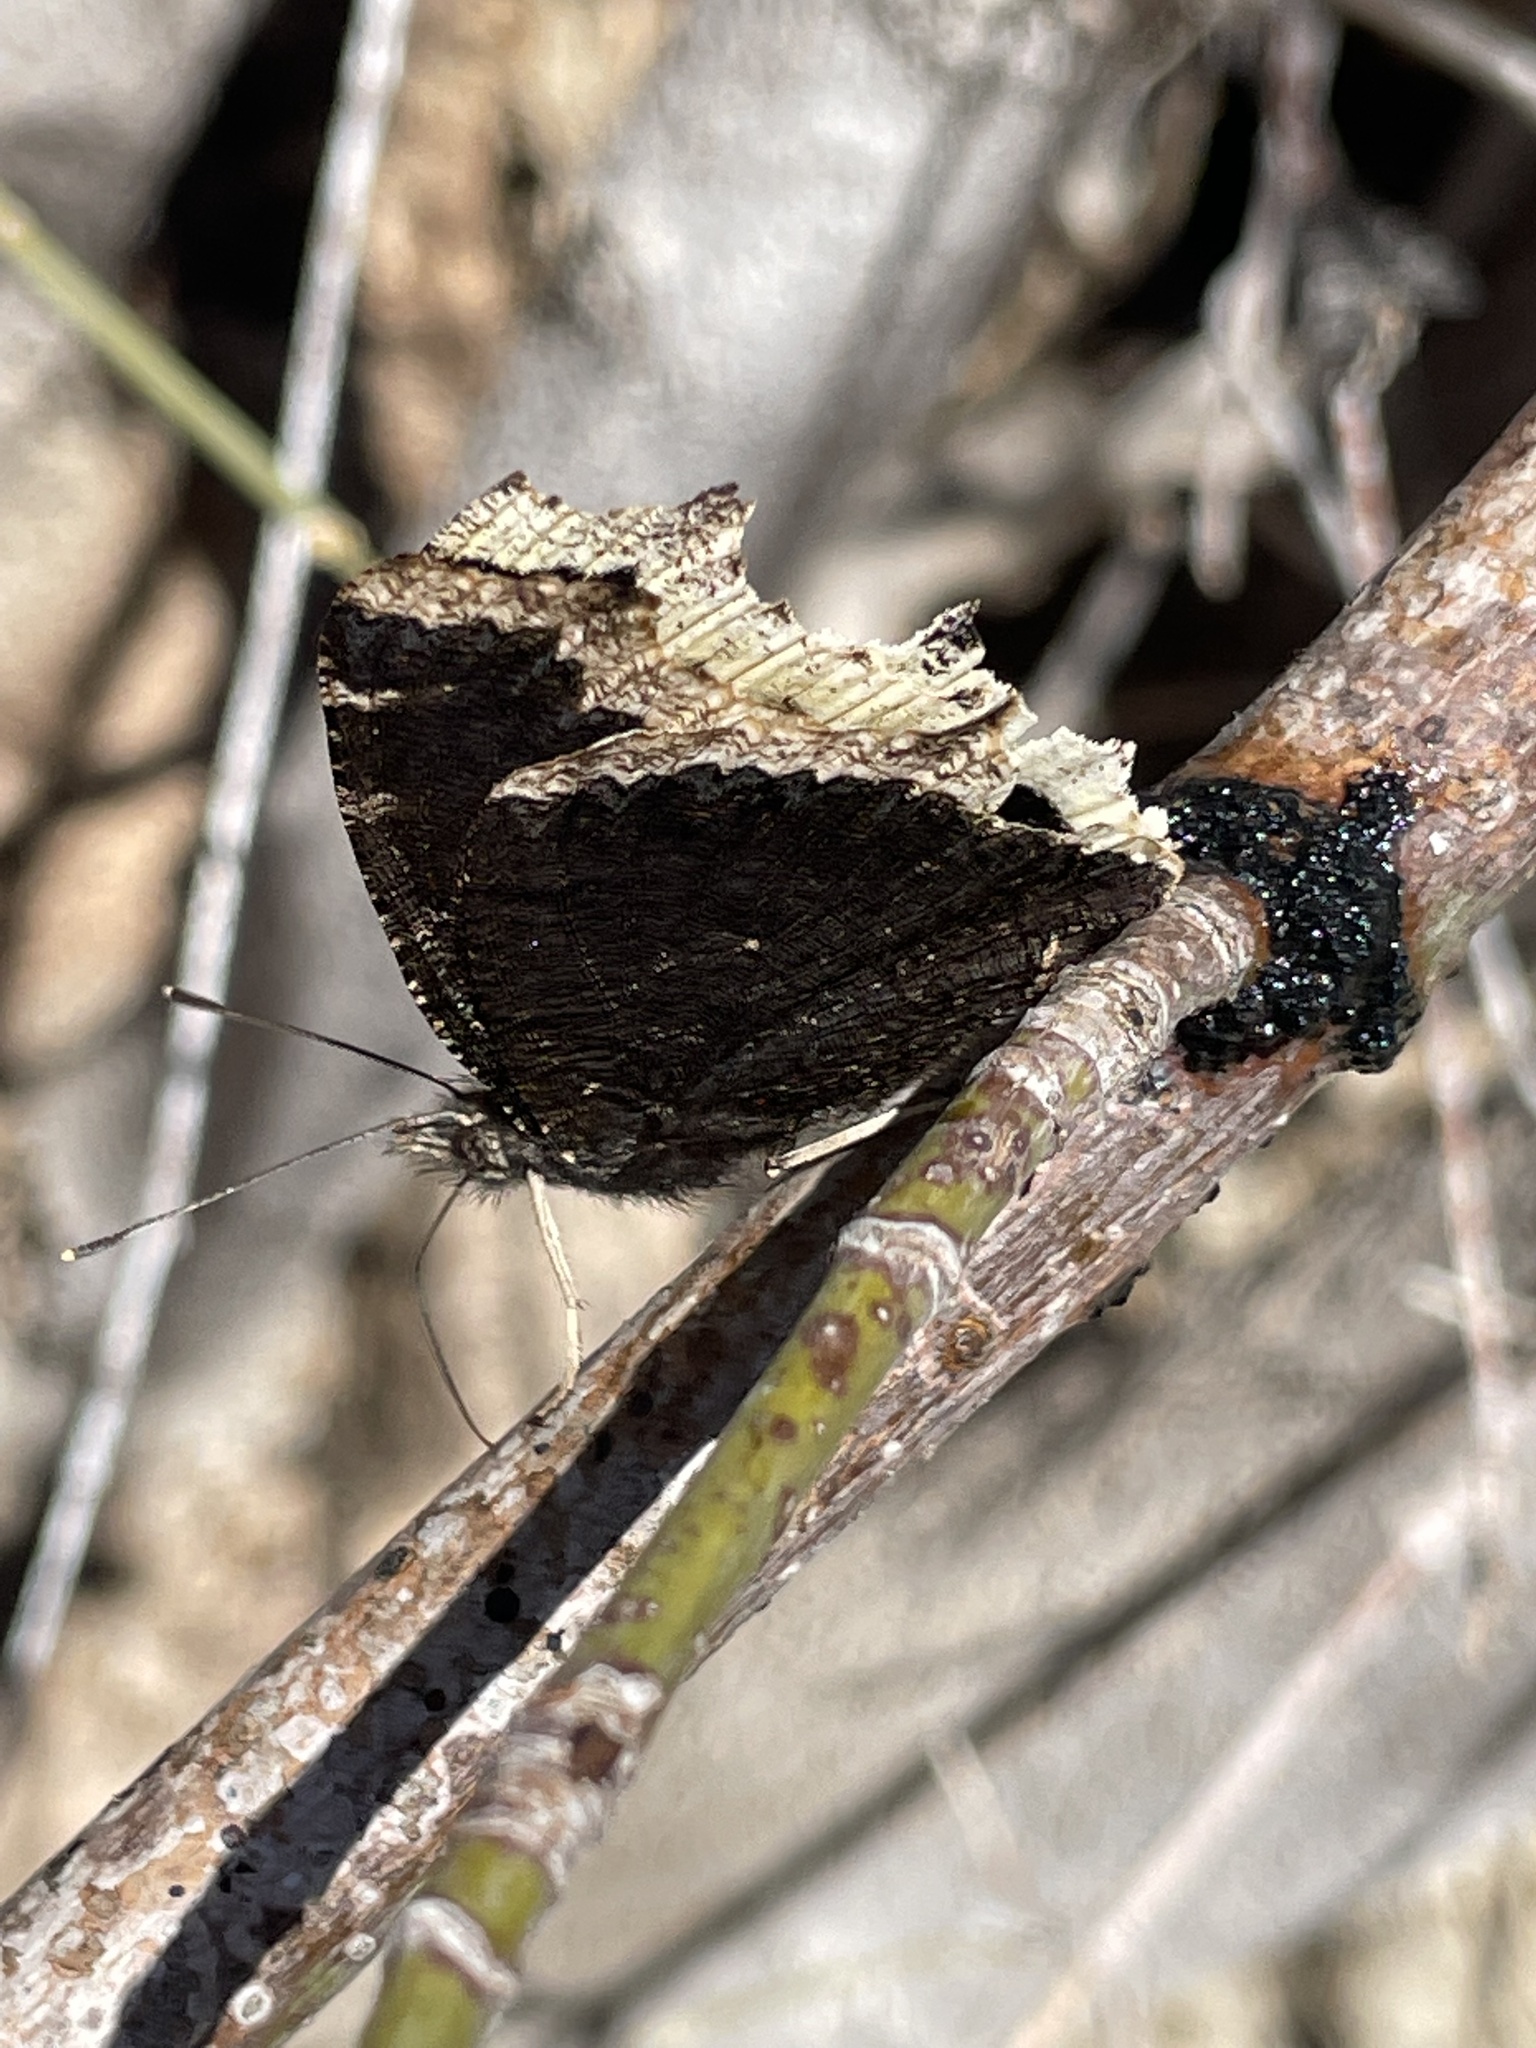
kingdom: Animalia
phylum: Arthropoda
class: Insecta
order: Lepidoptera
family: Nymphalidae
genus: Nymphalis
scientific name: Nymphalis antiopa
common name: Camberwell beauty
